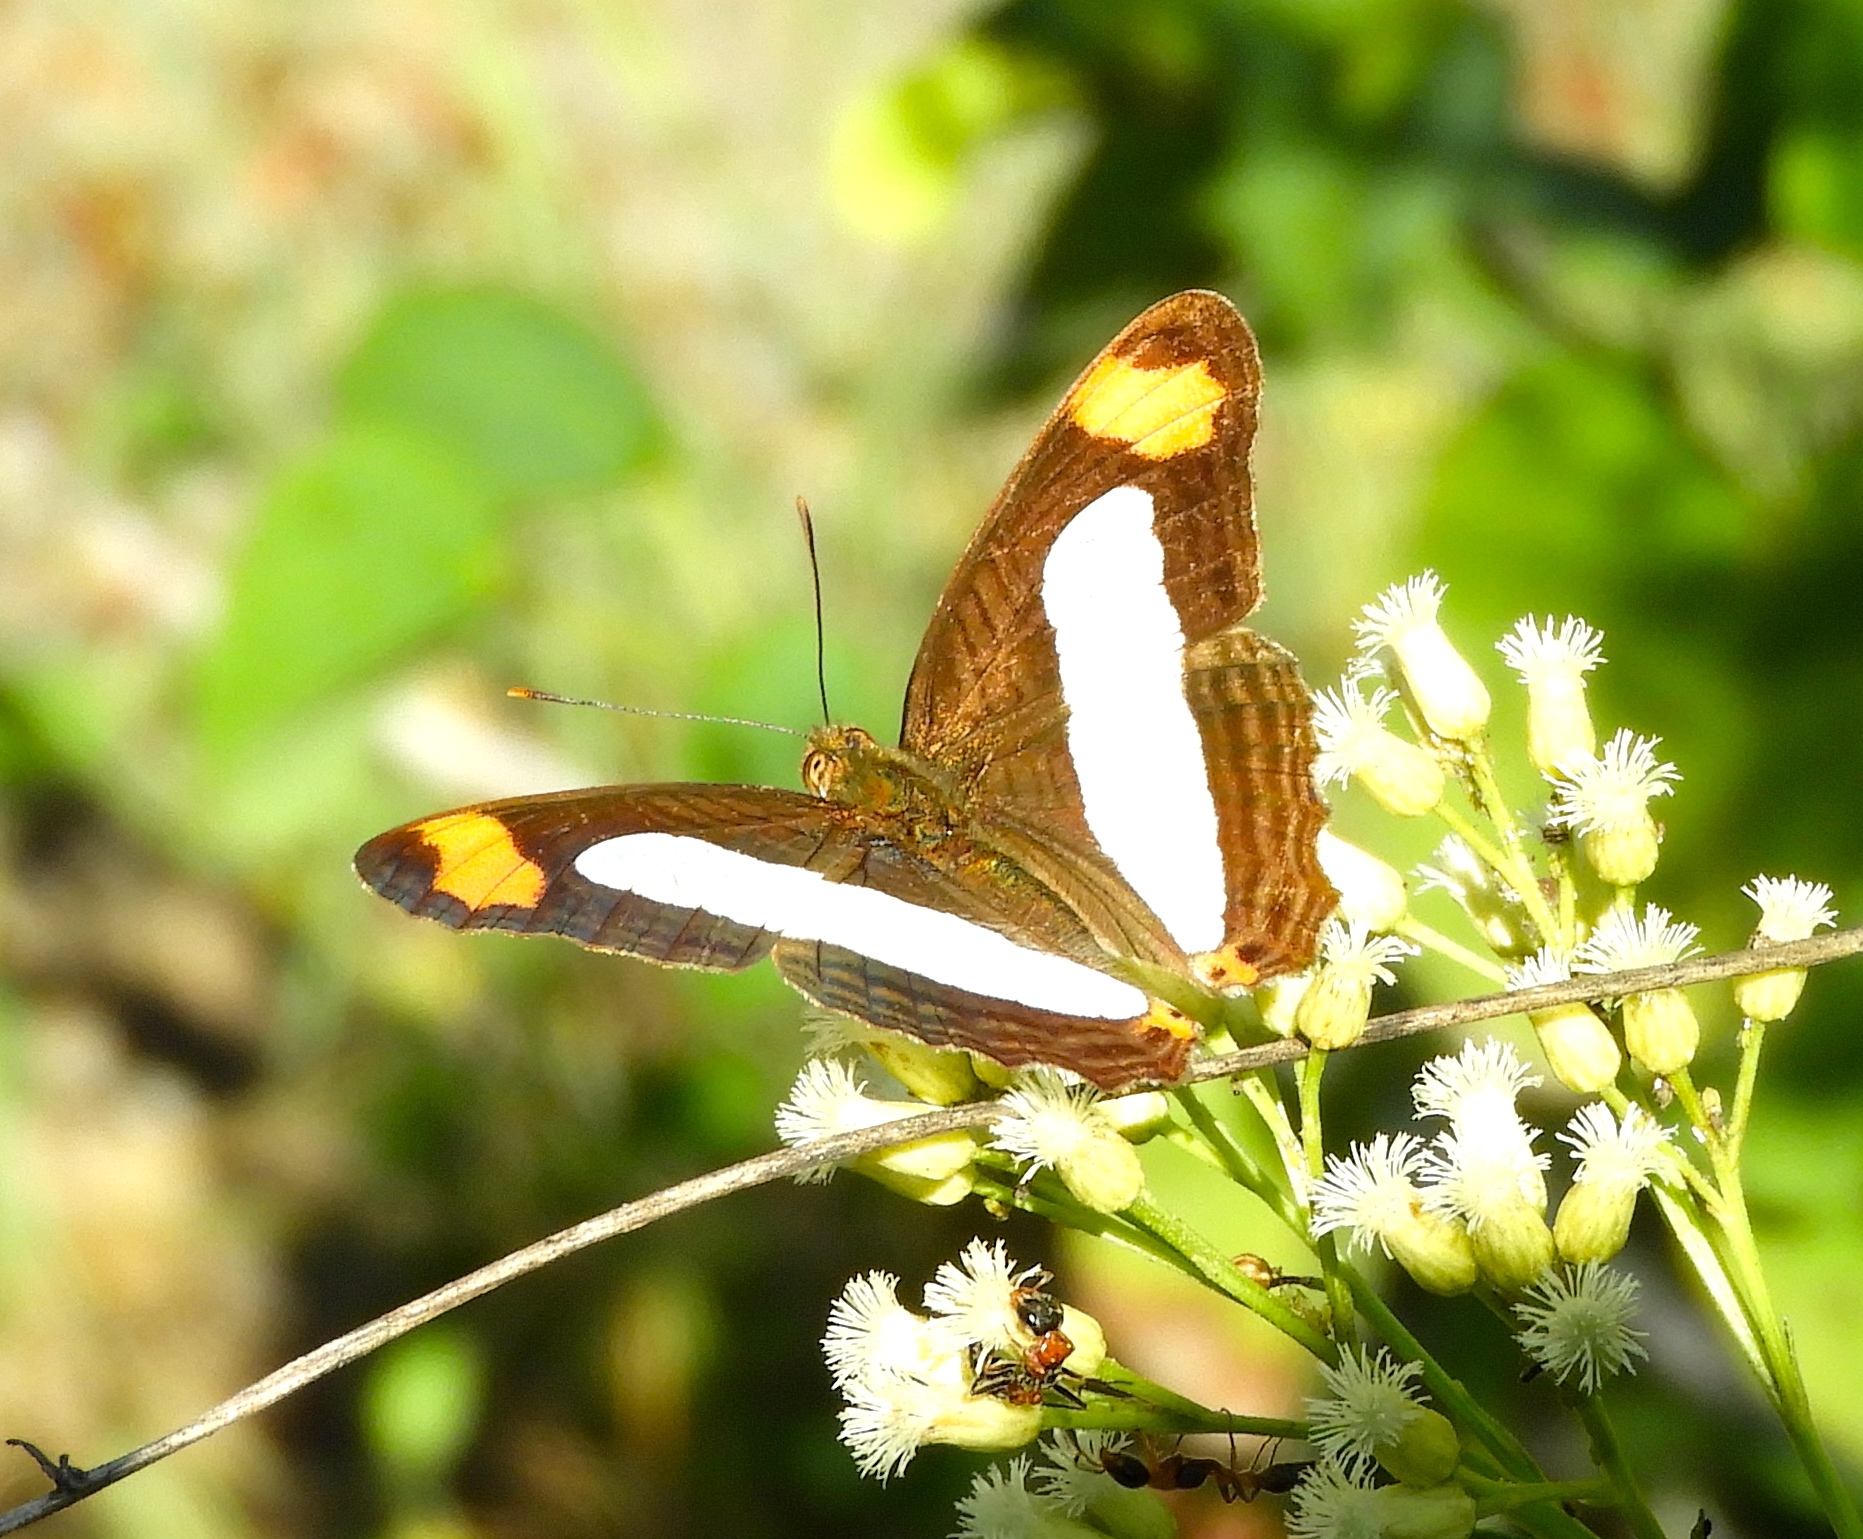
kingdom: Animalia
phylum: Arthropoda
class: Insecta
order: Lepidoptera
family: Nymphalidae
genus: Limenitis
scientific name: Limenitis iphiclus
